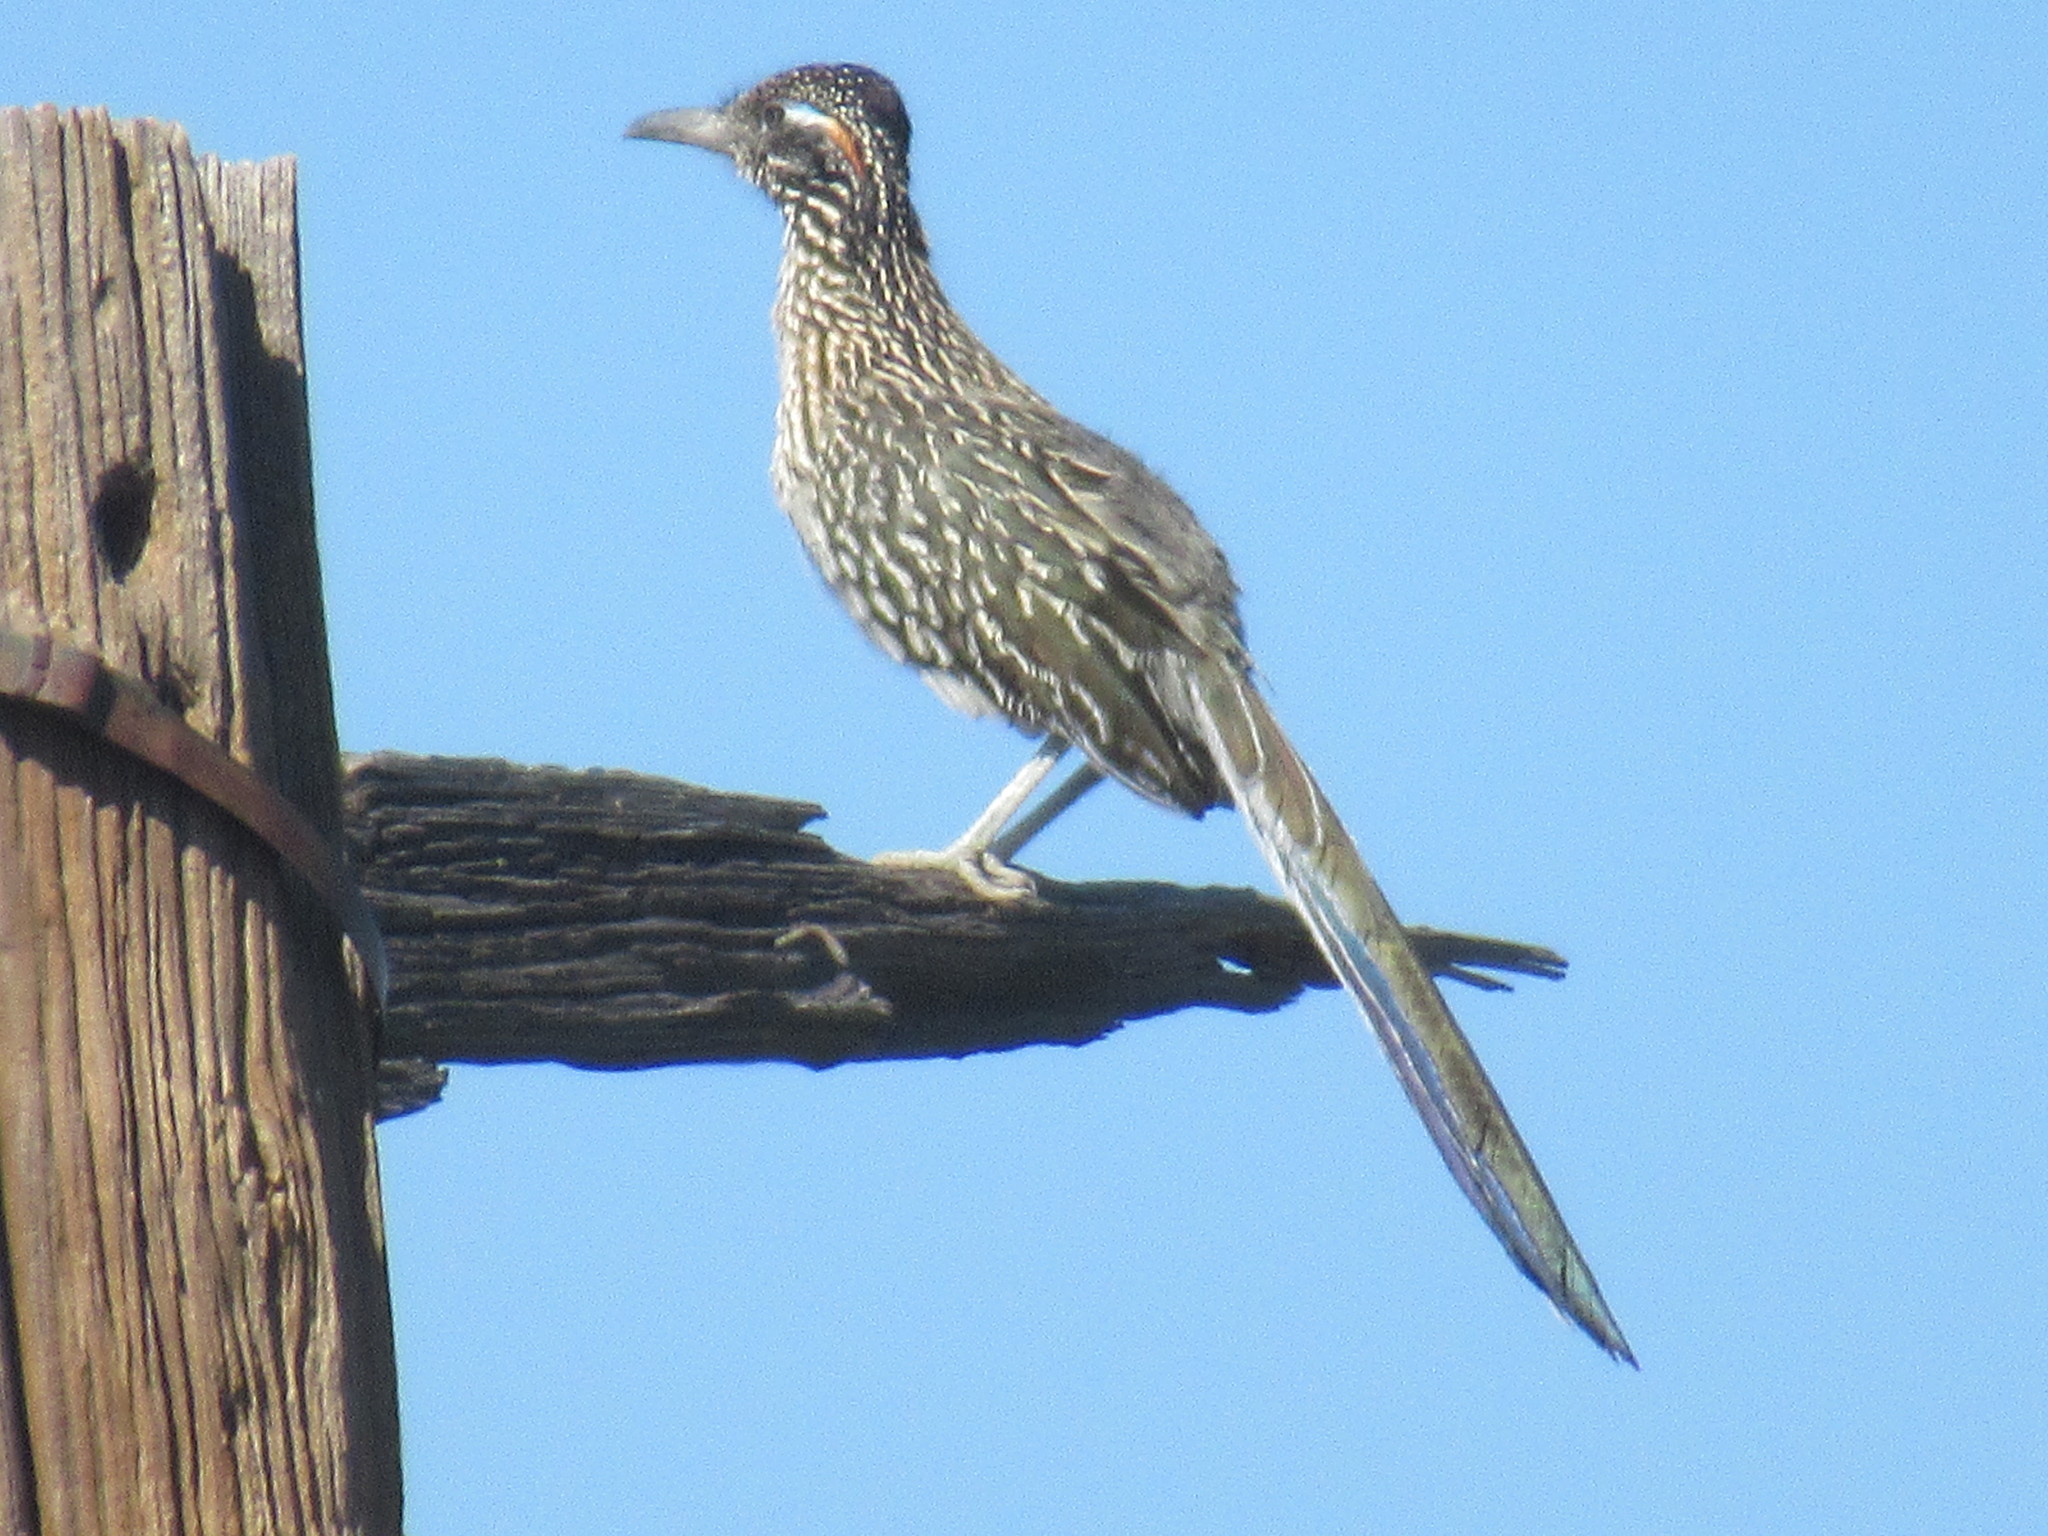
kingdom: Animalia
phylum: Chordata
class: Aves
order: Cuculiformes
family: Cuculidae
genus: Geococcyx
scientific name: Geococcyx californianus
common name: Greater roadrunner
